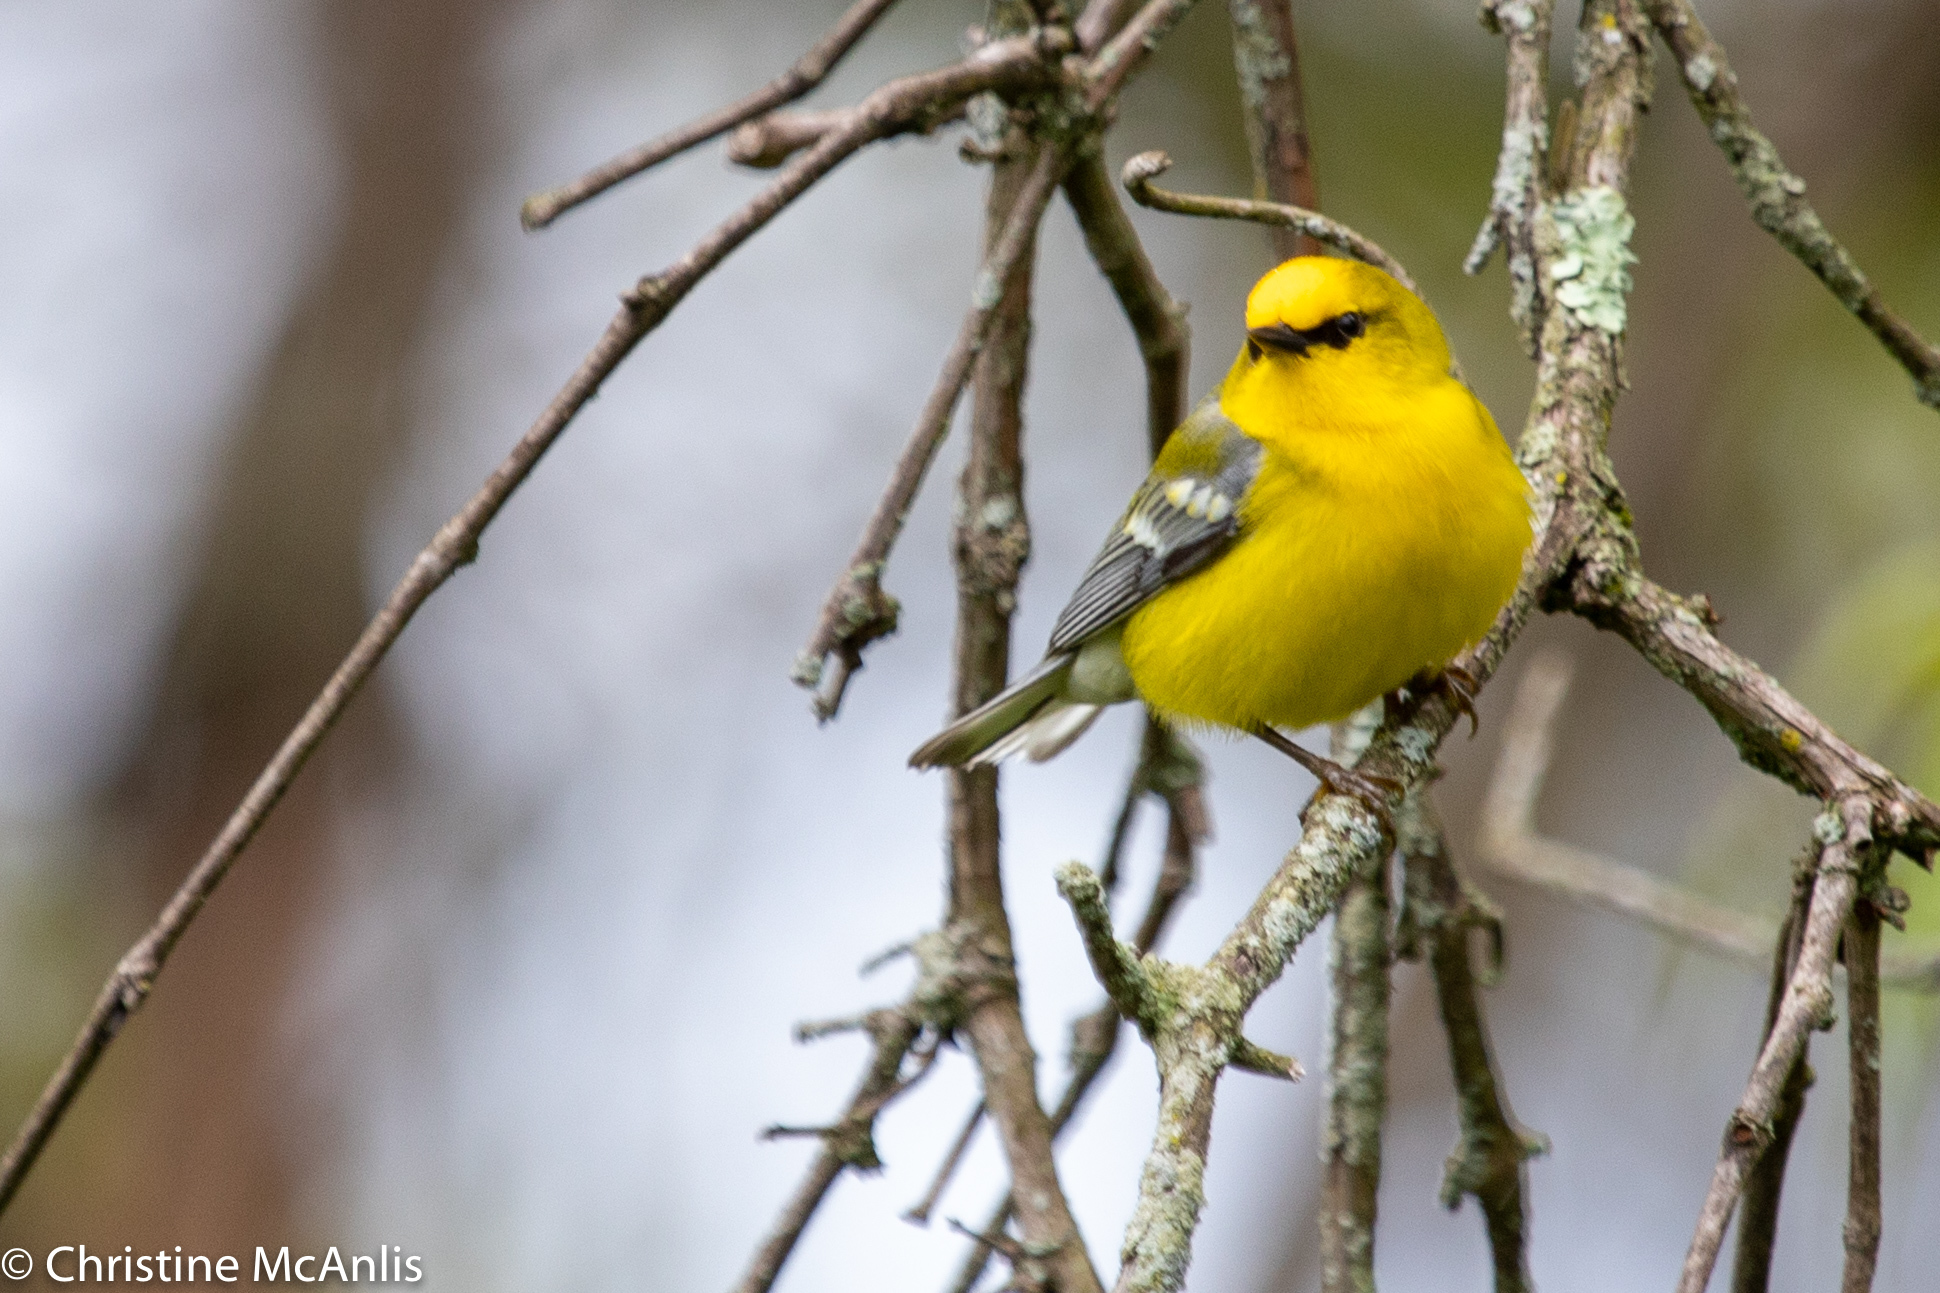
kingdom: Animalia
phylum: Chordata
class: Aves
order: Passeriformes
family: Parulidae
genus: Vermivora
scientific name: Vermivora cyanoptera
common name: Blue-winged warbler
